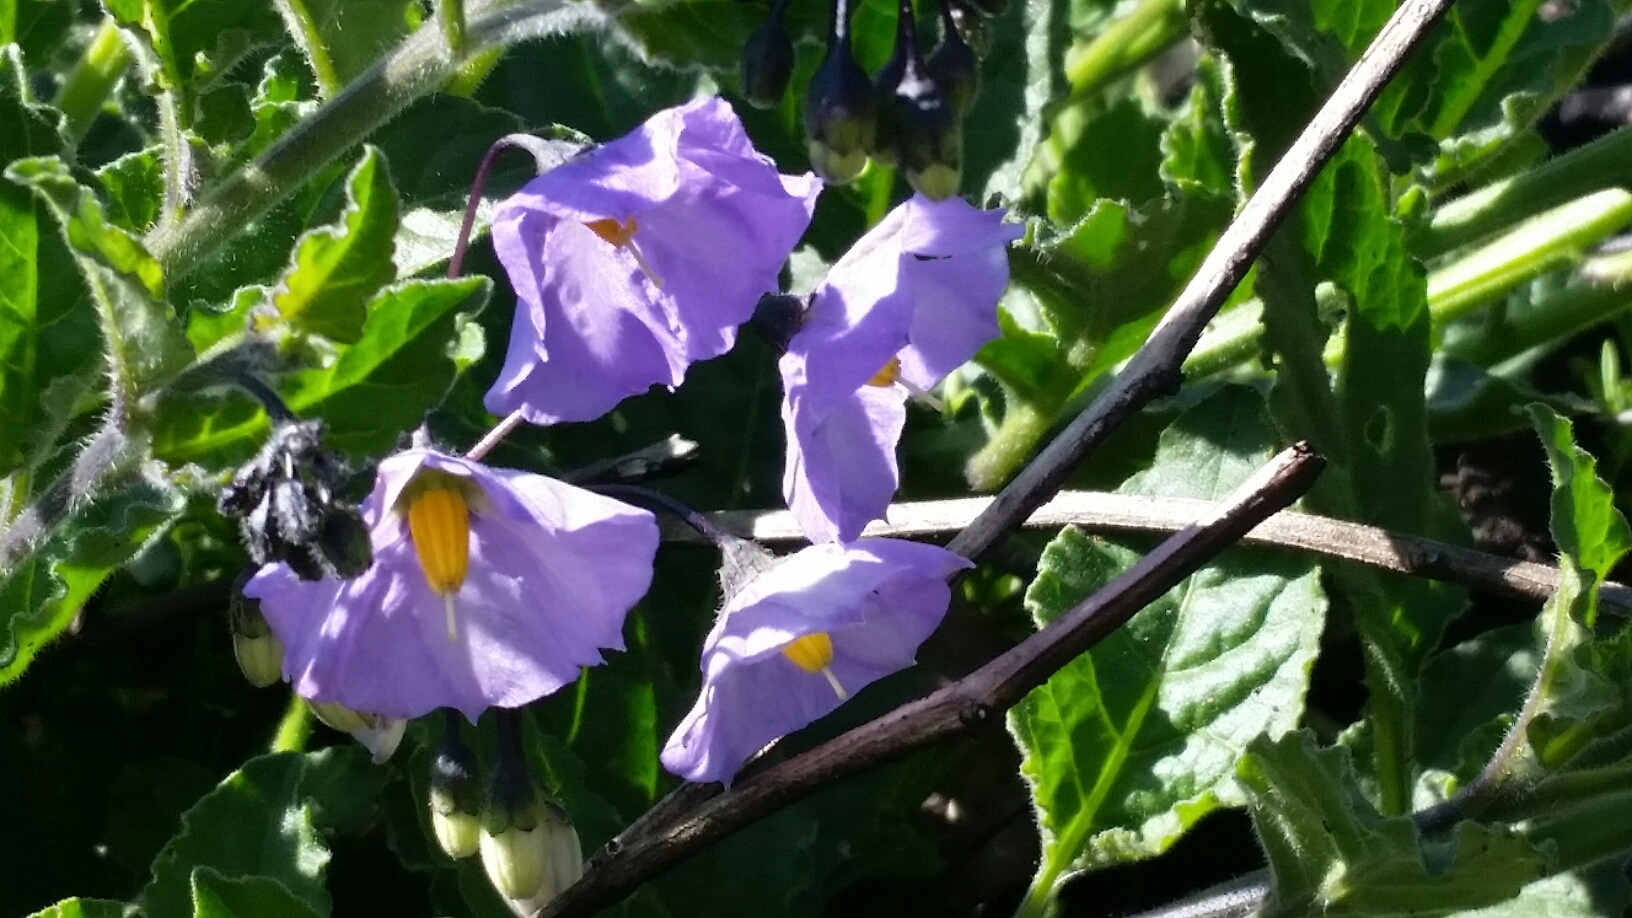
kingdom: Plantae
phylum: Tracheophyta
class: Magnoliopsida
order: Solanales
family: Solanaceae
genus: Solanum
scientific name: Solanum umbelliferum
